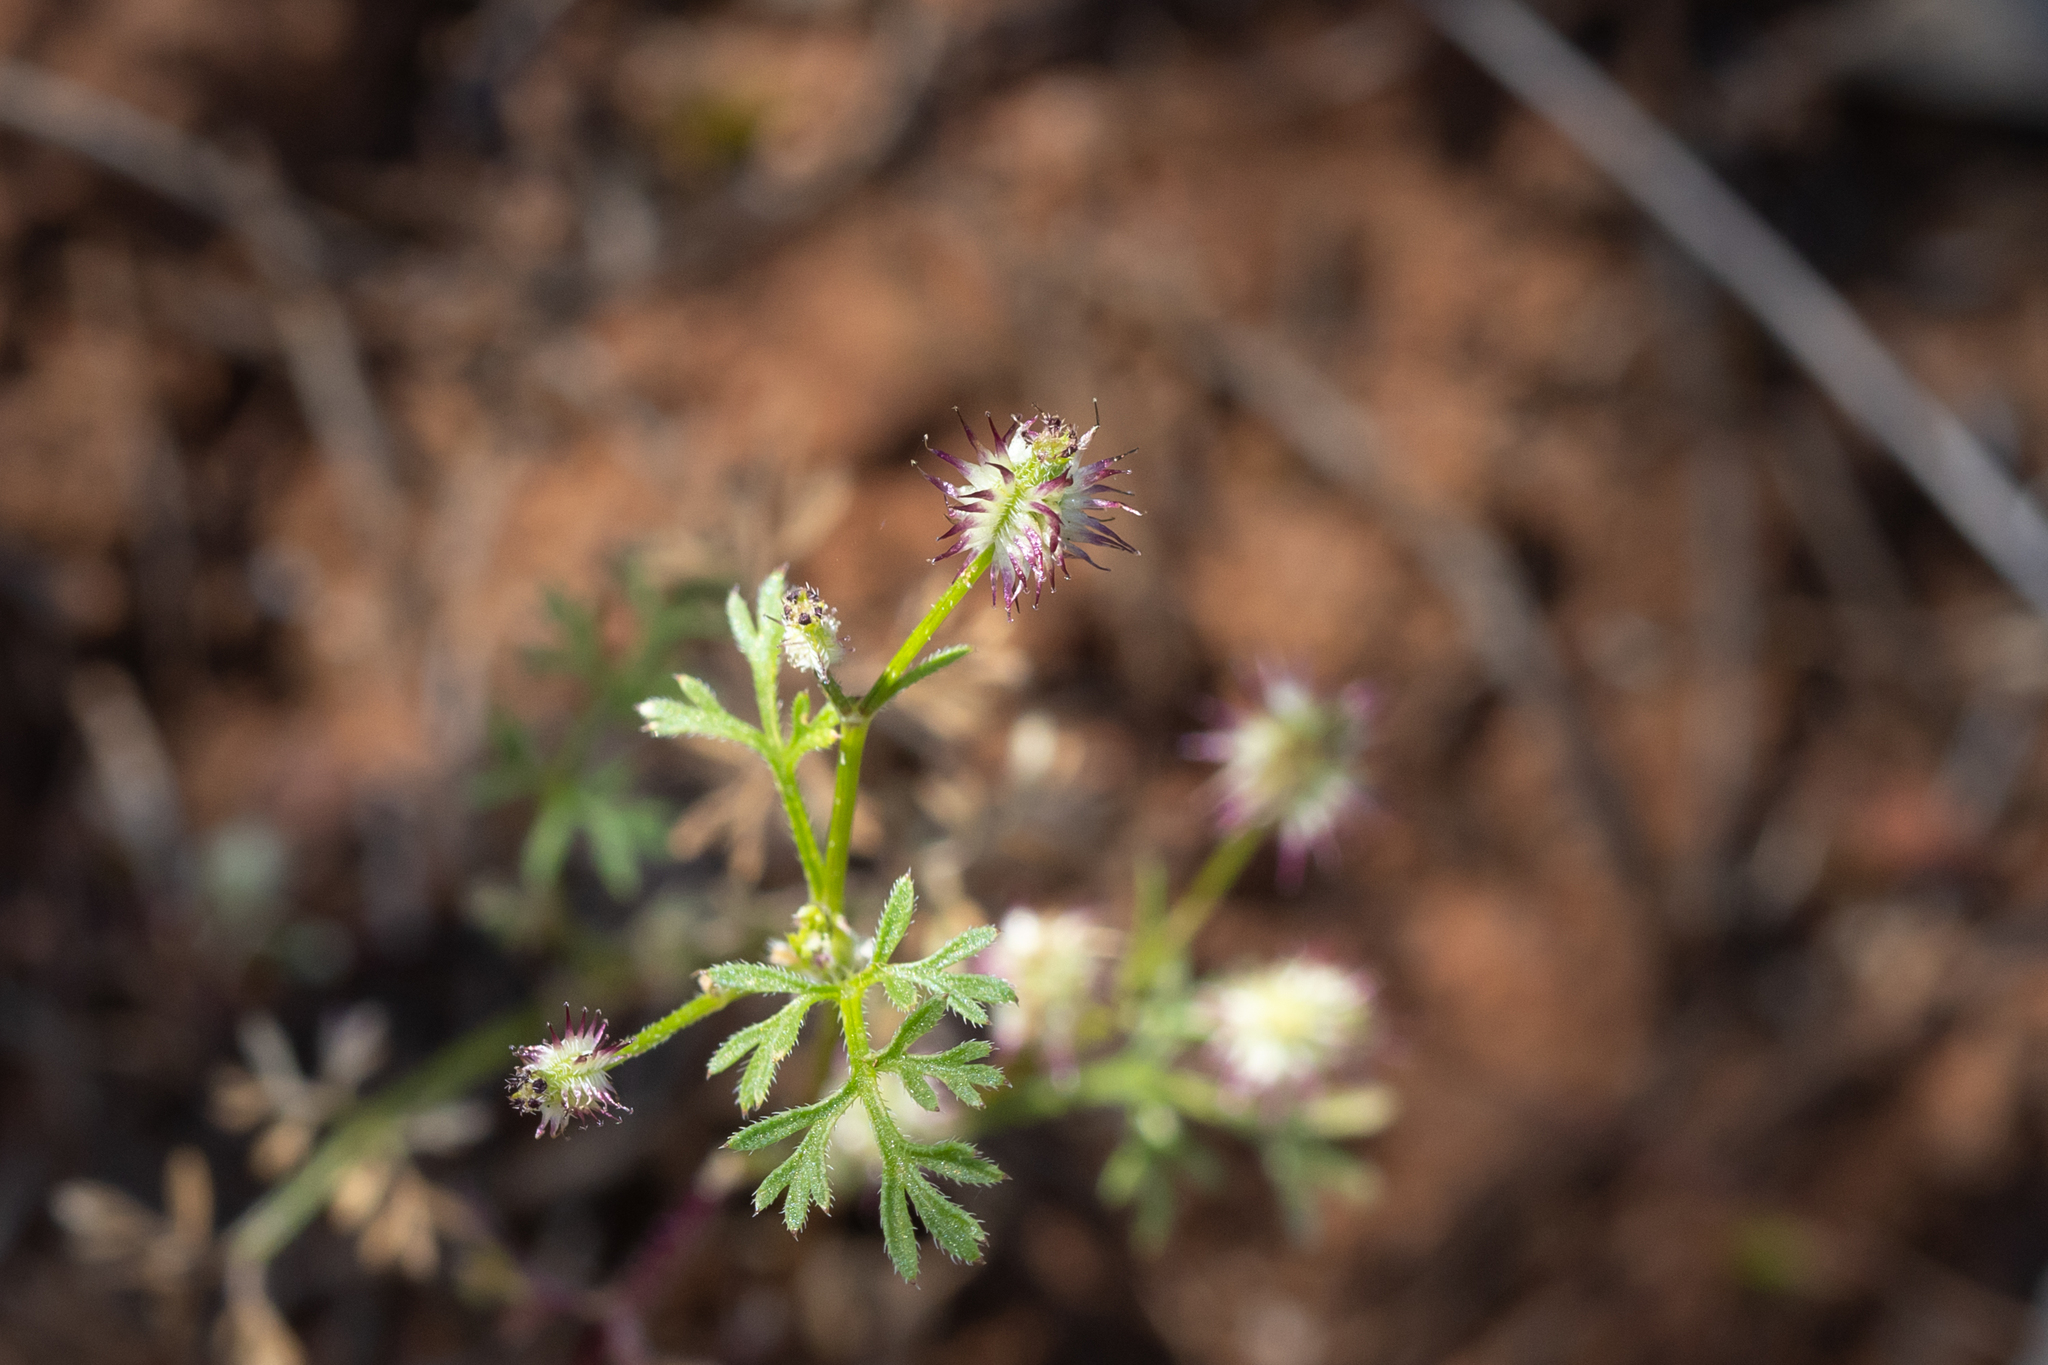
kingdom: Plantae
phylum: Tracheophyta
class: Magnoliopsida
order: Apiales
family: Apiaceae
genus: Daucus
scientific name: Daucus glochidiatus
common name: Australian carrot
